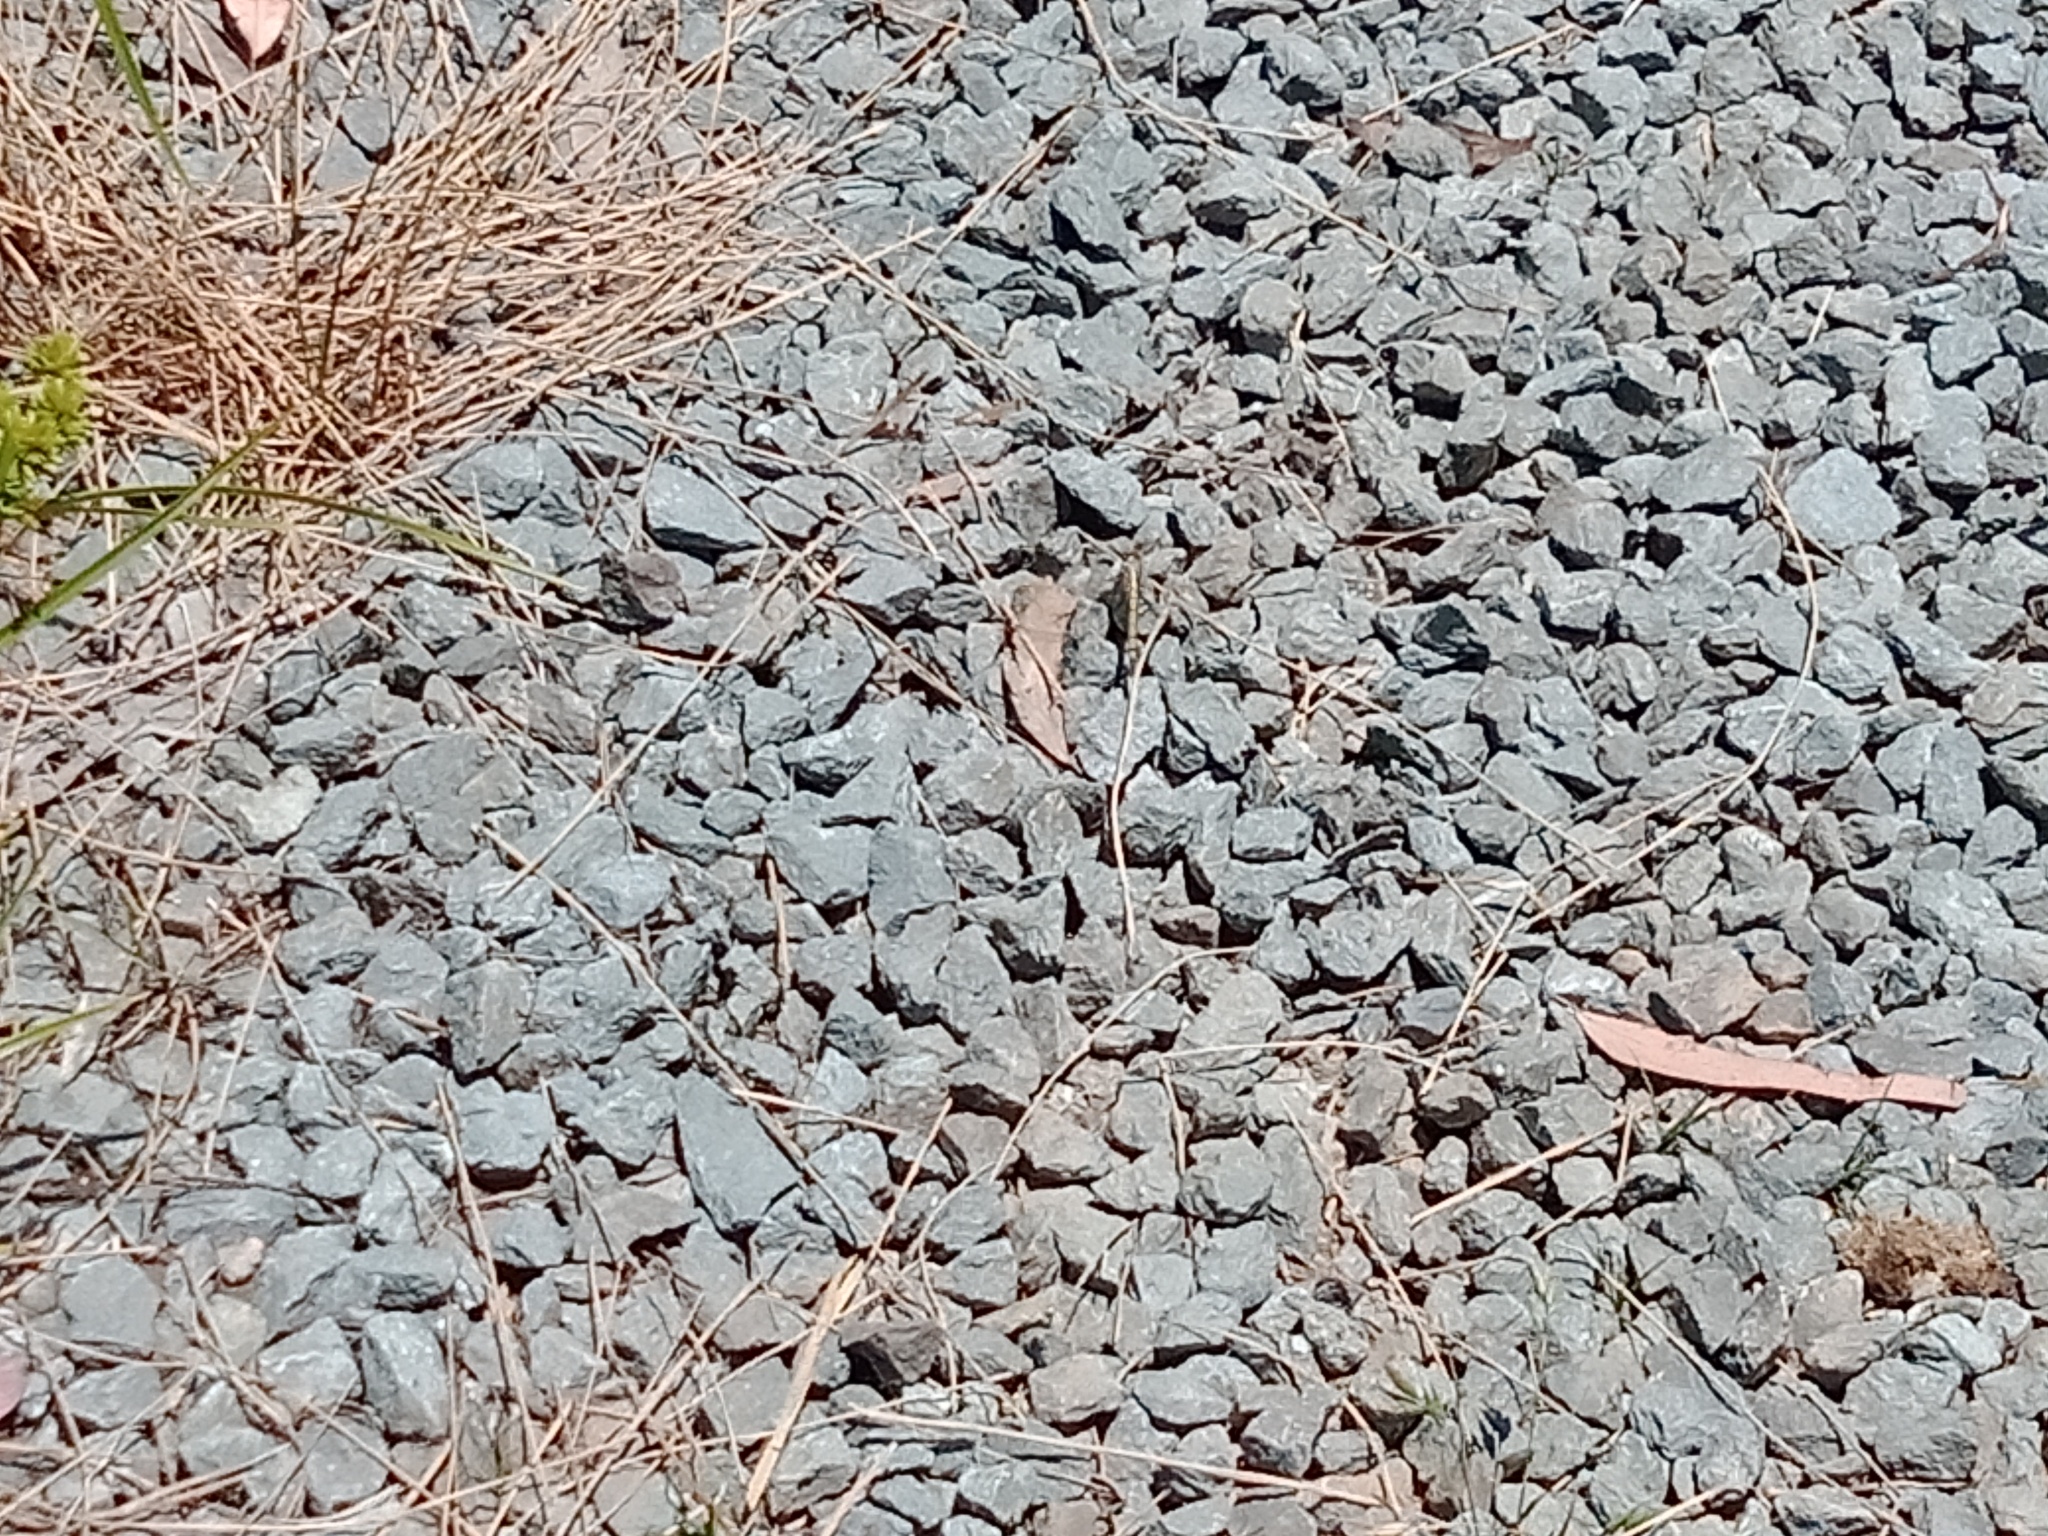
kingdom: Animalia
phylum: Arthropoda
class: Insecta
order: Odonata
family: Libellulidae
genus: Orthetrum
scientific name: Orthetrum caledonicum
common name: Blue skimmer
